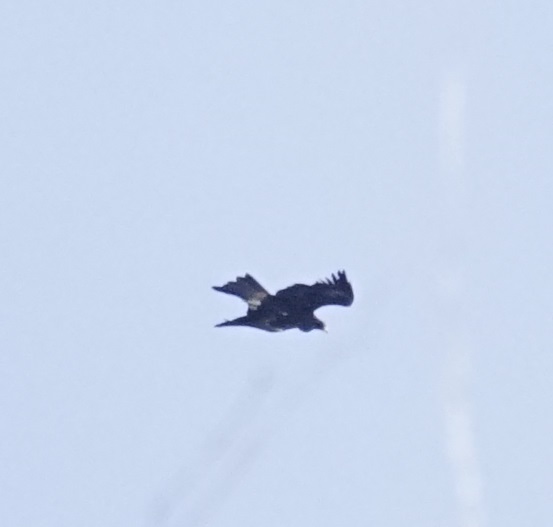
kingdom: Animalia
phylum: Chordata
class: Aves
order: Accipitriformes
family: Accipitridae
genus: Aquila
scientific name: Aquila audax
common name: Wedge-tailed eagle
